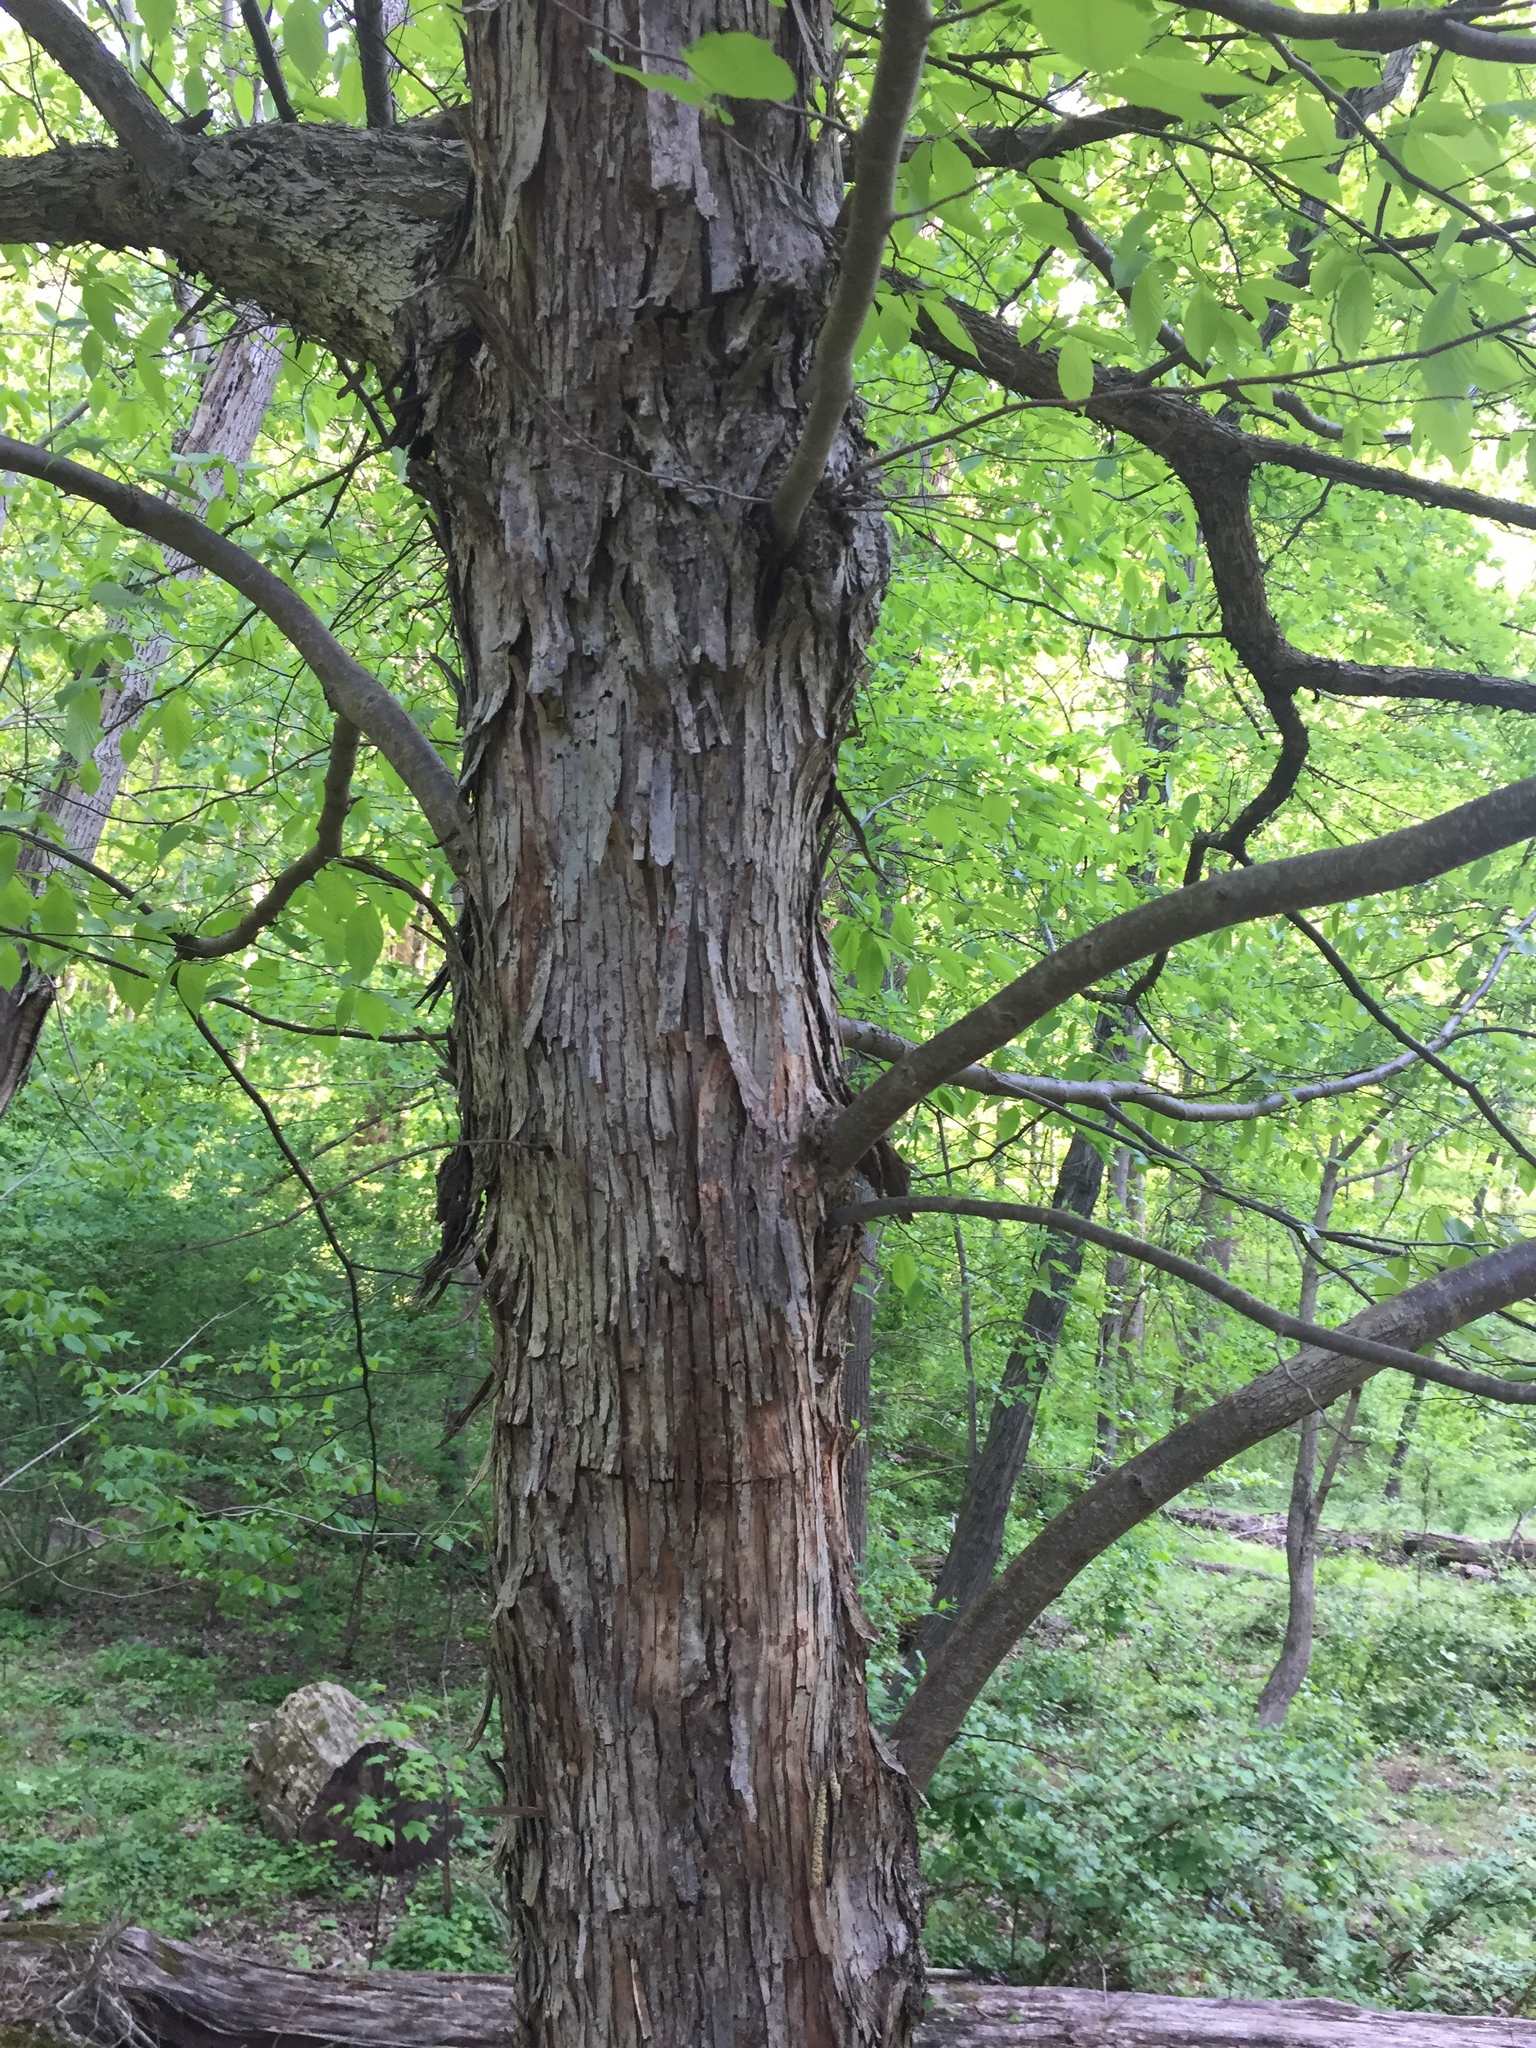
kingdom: Plantae
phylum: Tracheophyta
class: Magnoliopsida
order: Fagales
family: Betulaceae
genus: Ostrya
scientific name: Ostrya virginiana
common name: Ironwood
